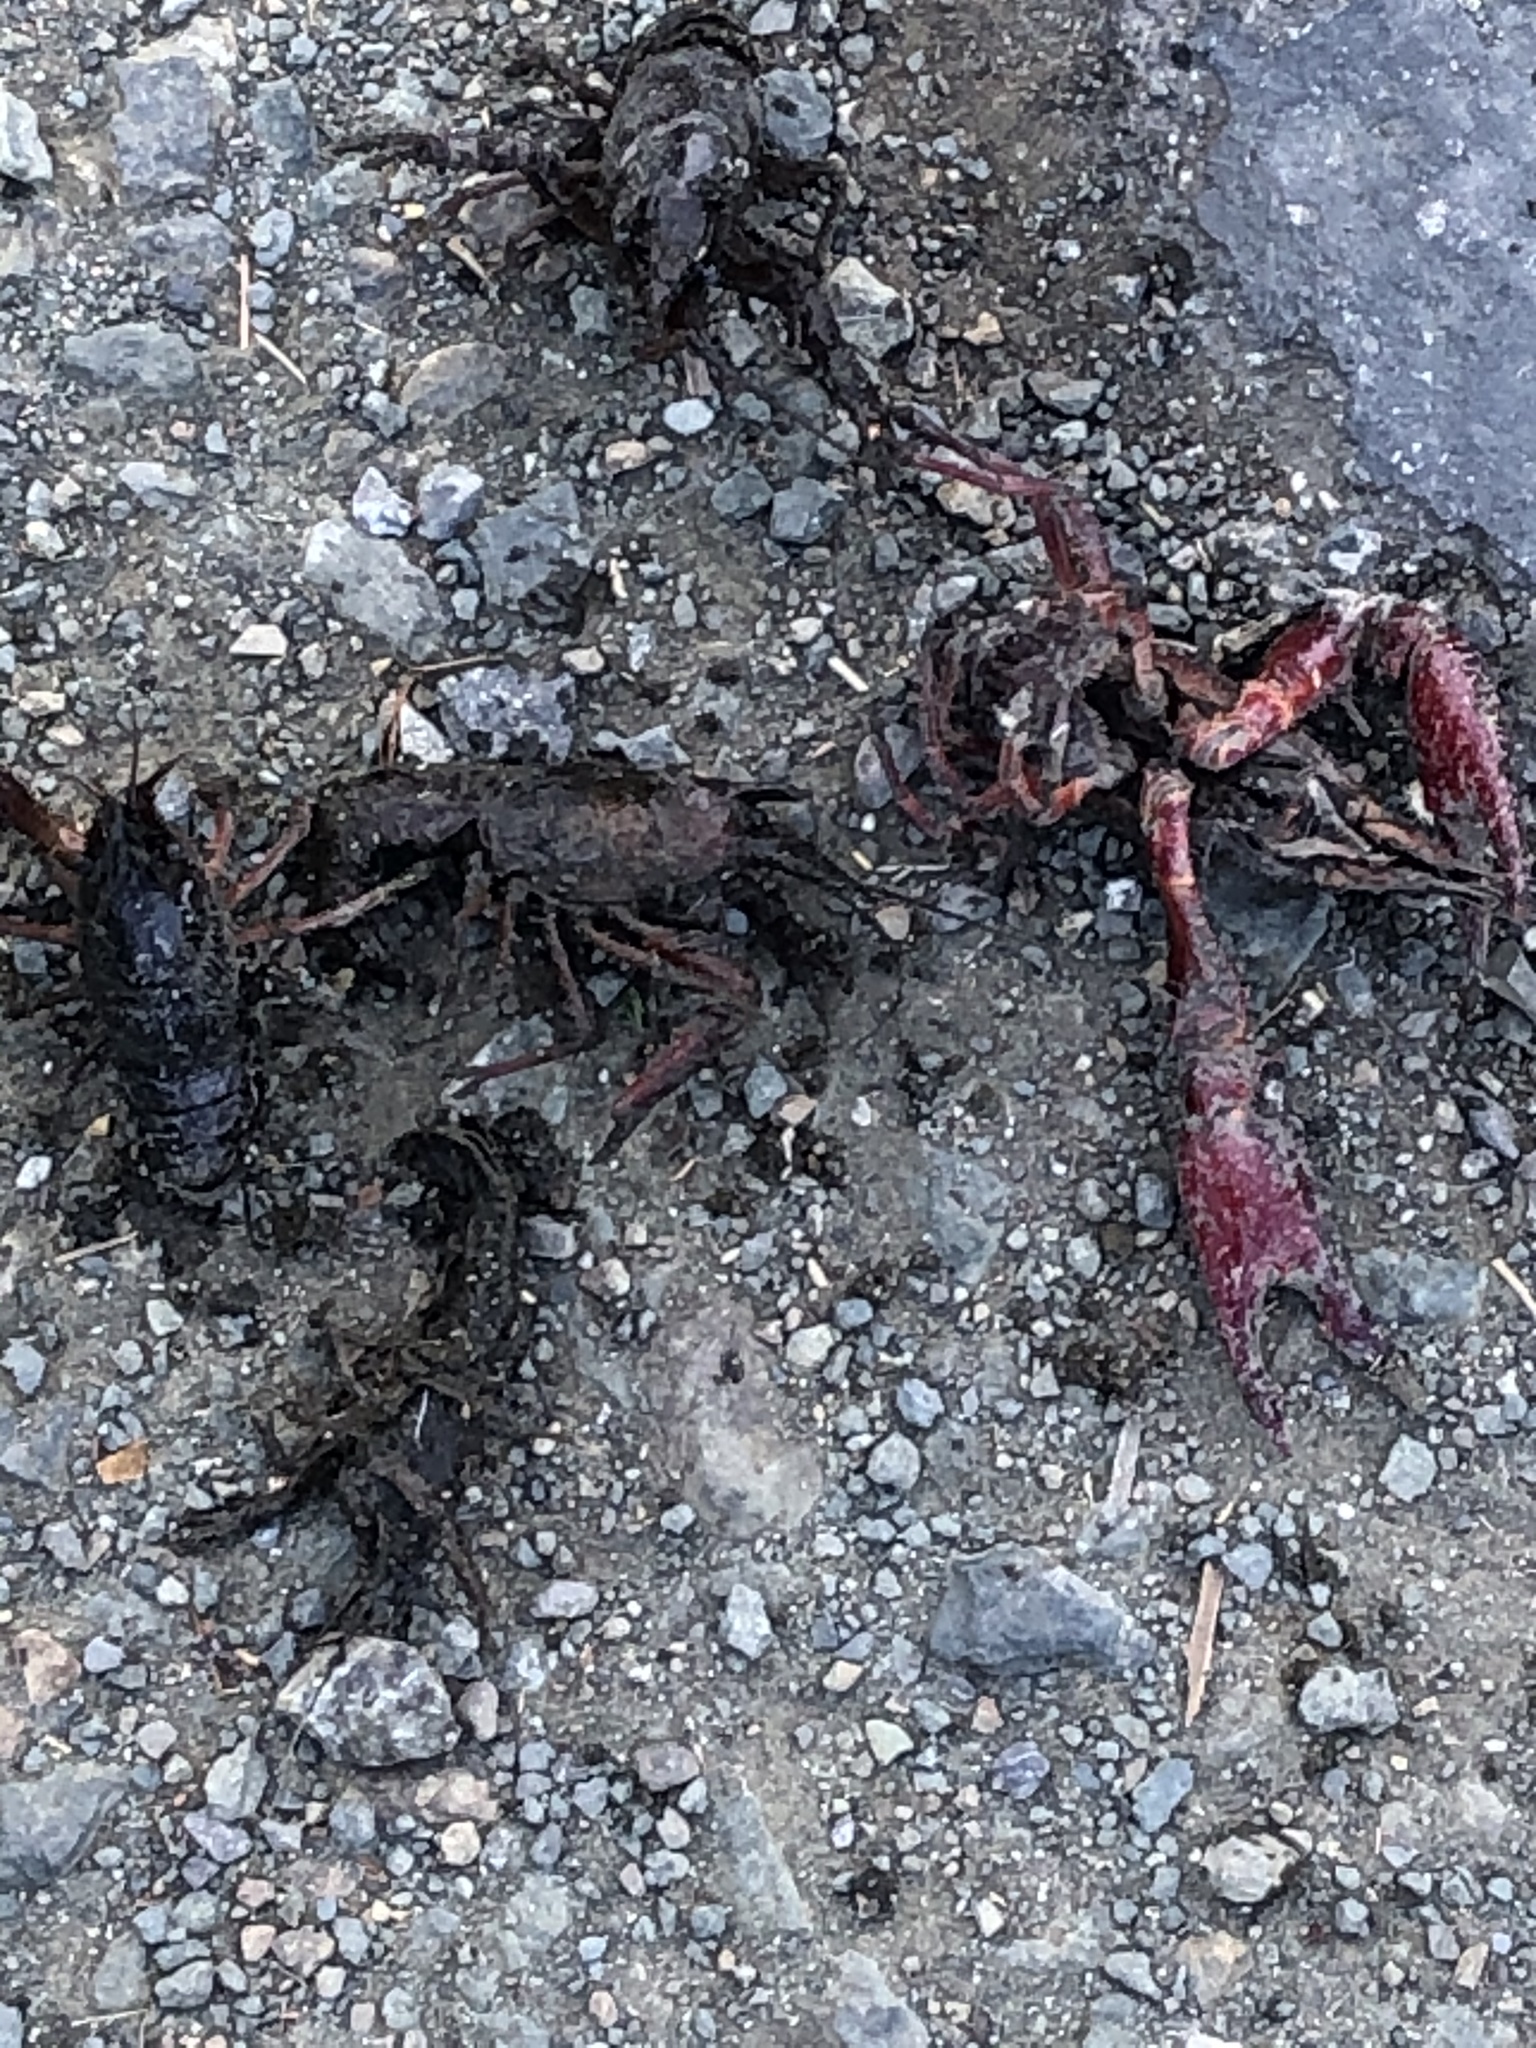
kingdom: Animalia
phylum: Arthropoda
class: Malacostraca
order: Decapoda
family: Cambaridae
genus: Procambarus
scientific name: Procambarus clarkii
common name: Red swamp crayfish
